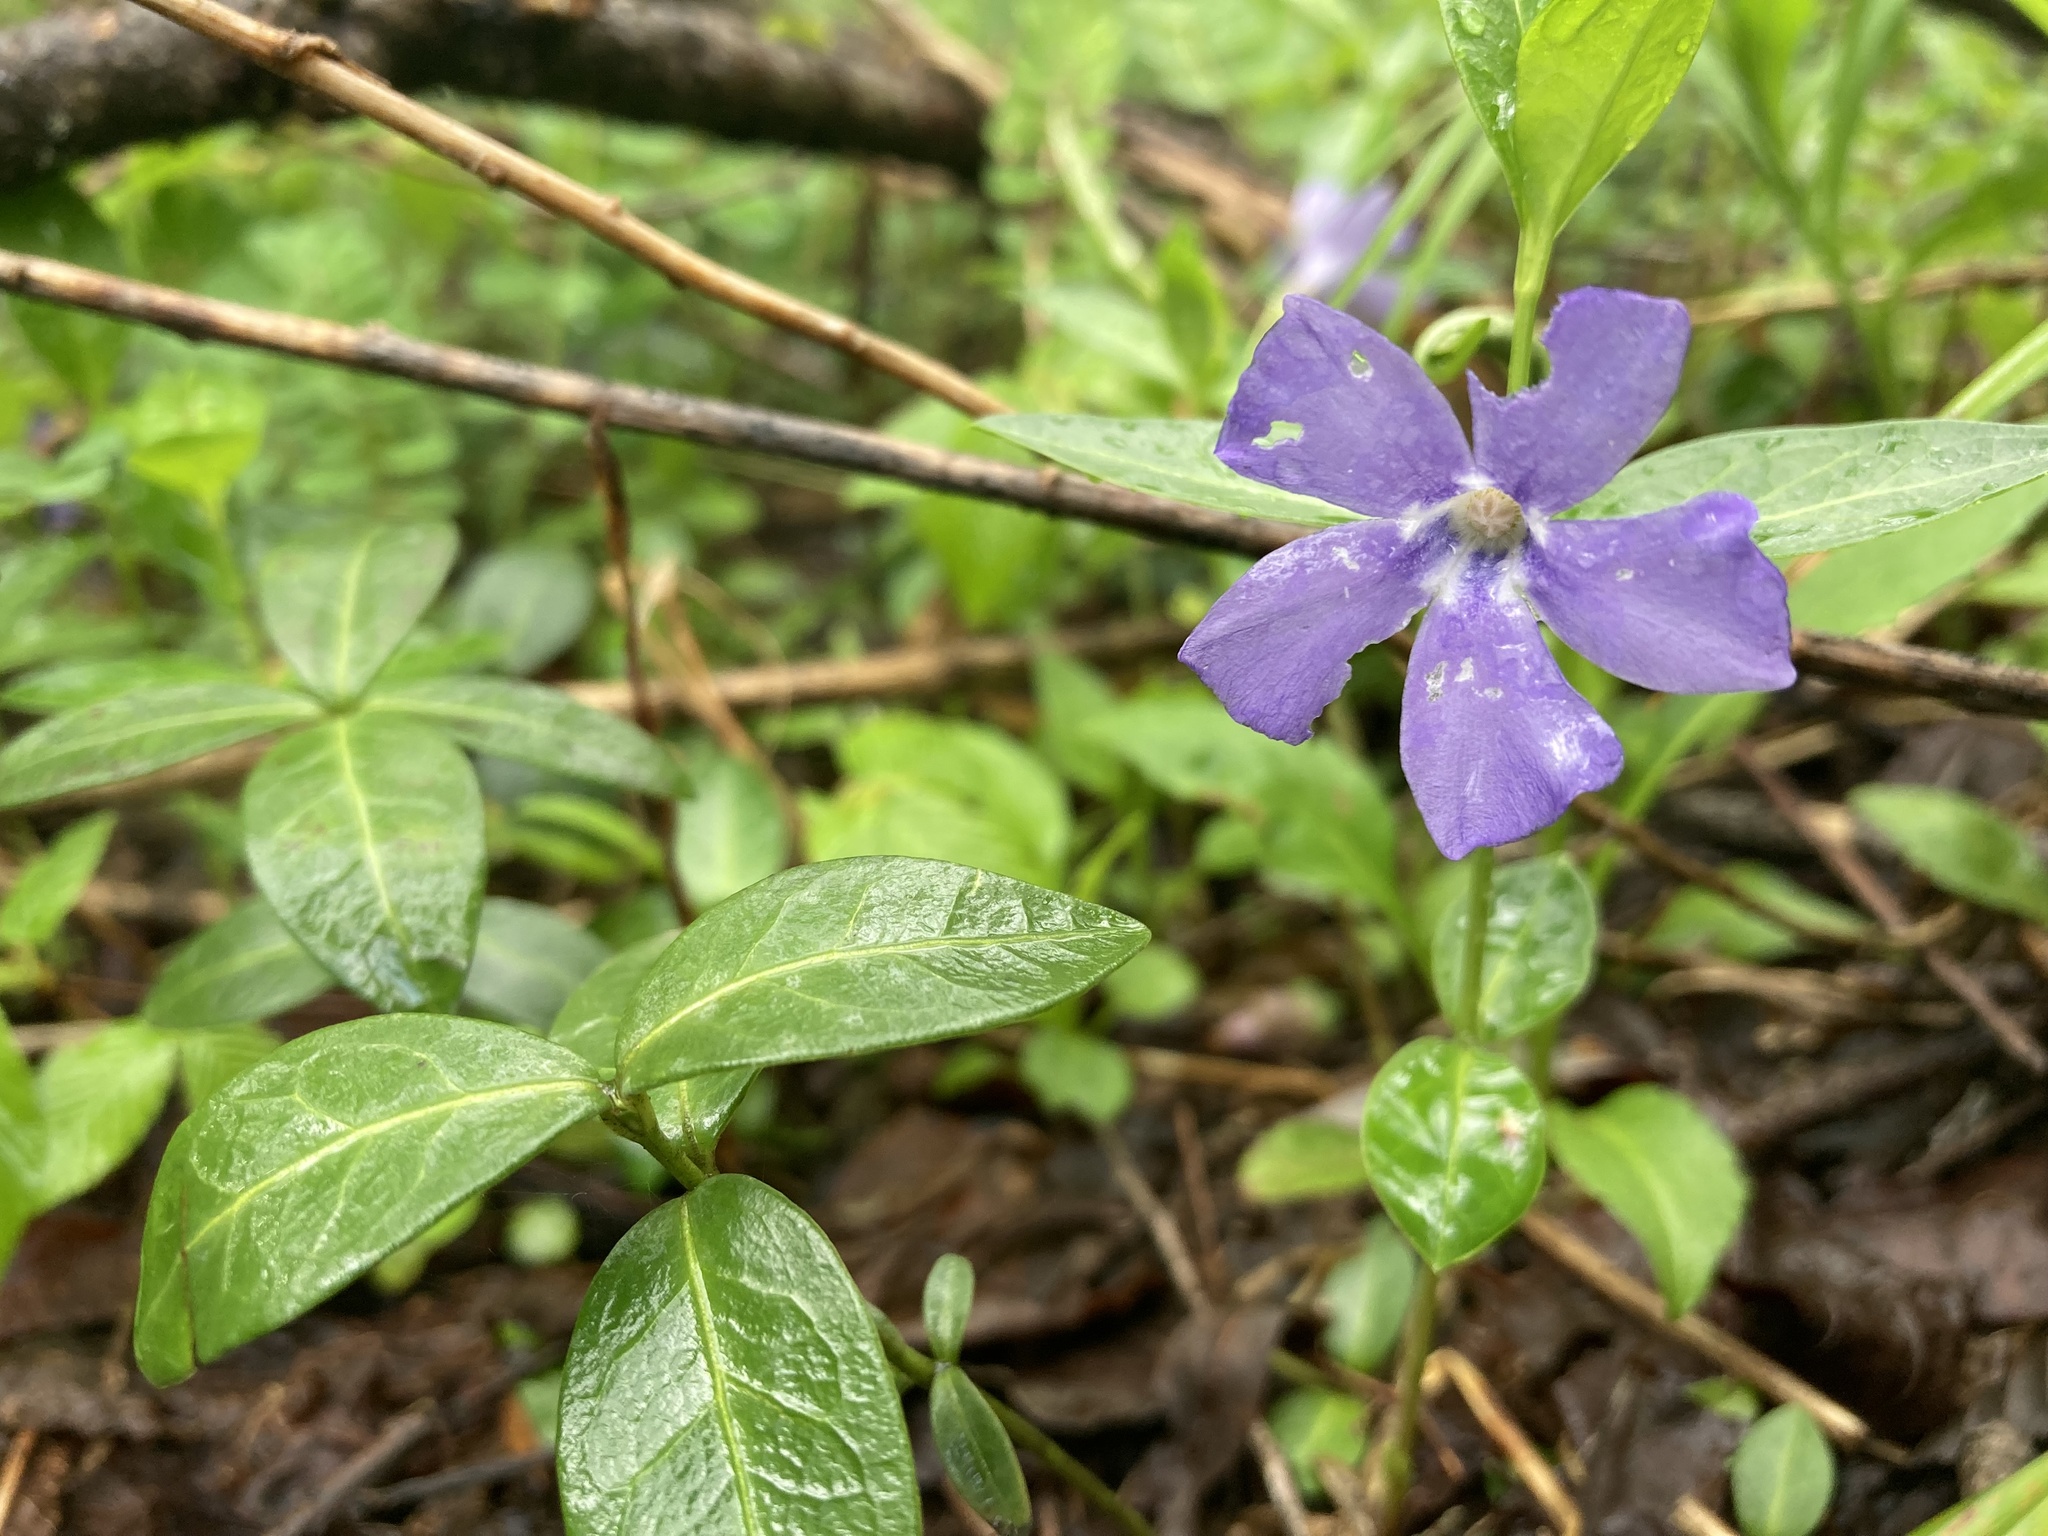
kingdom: Plantae
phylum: Tracheophyta
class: Magnoliopsida
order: Gentianales
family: Apocynaceae
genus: Vinca
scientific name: Vinca minor
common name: Lesser periwinkle
